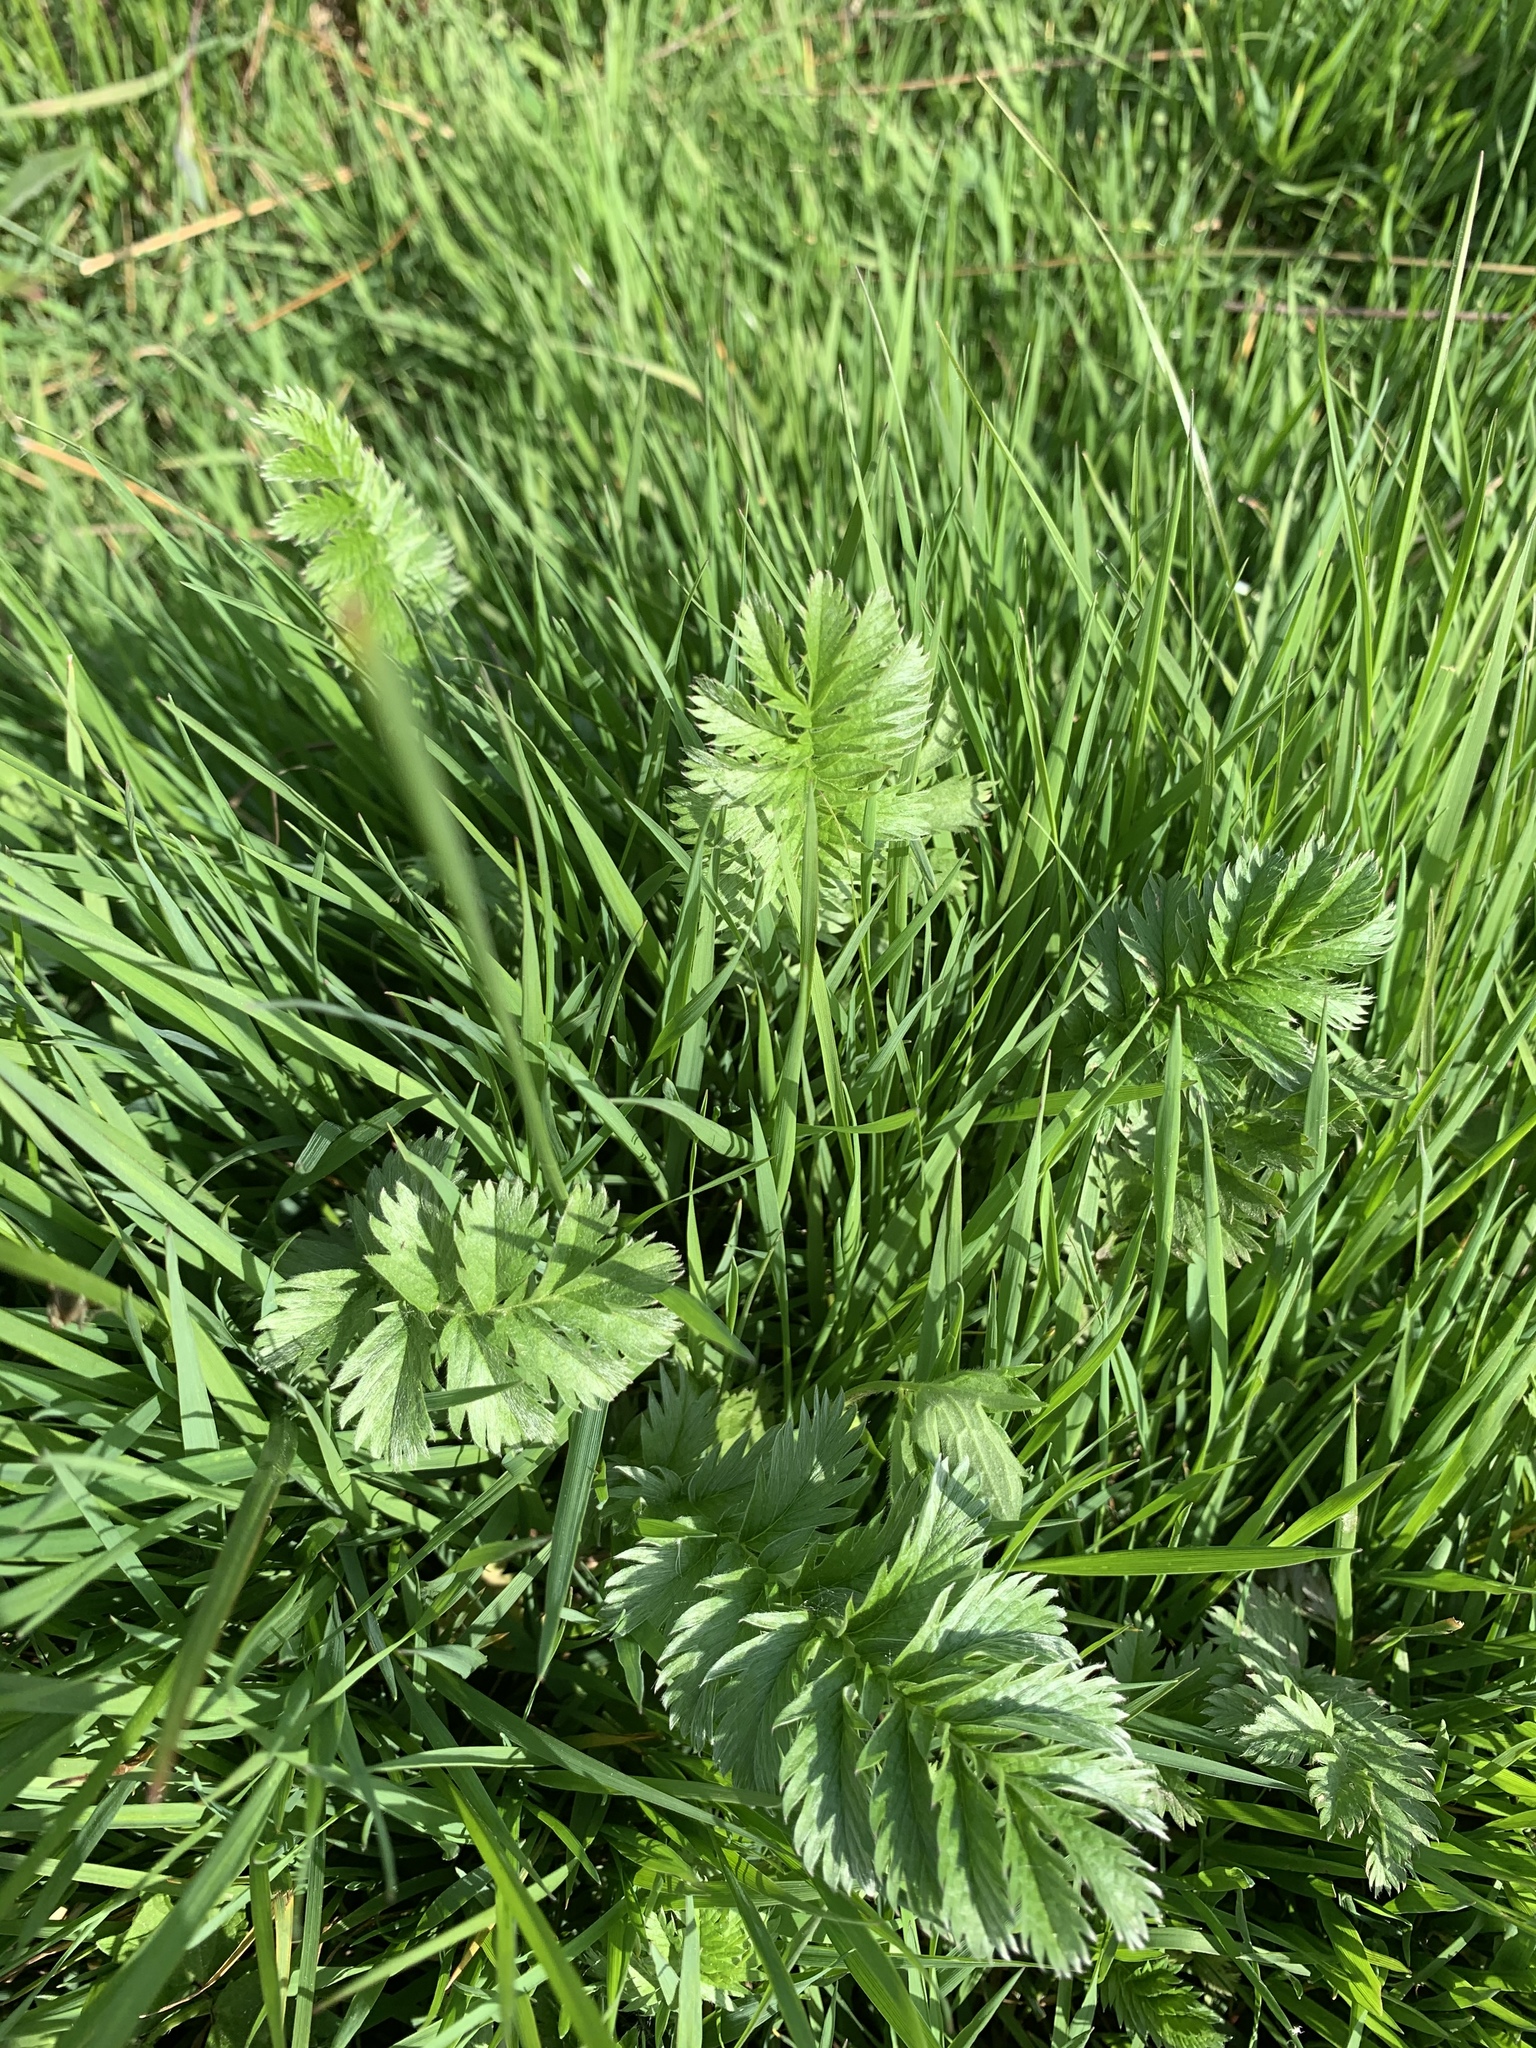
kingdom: Plantae
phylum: Tracheophyta
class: Magnoliopsida
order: Rosales
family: Rosaceae
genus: Argentina
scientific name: Argentina anserina
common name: Common silverweed
